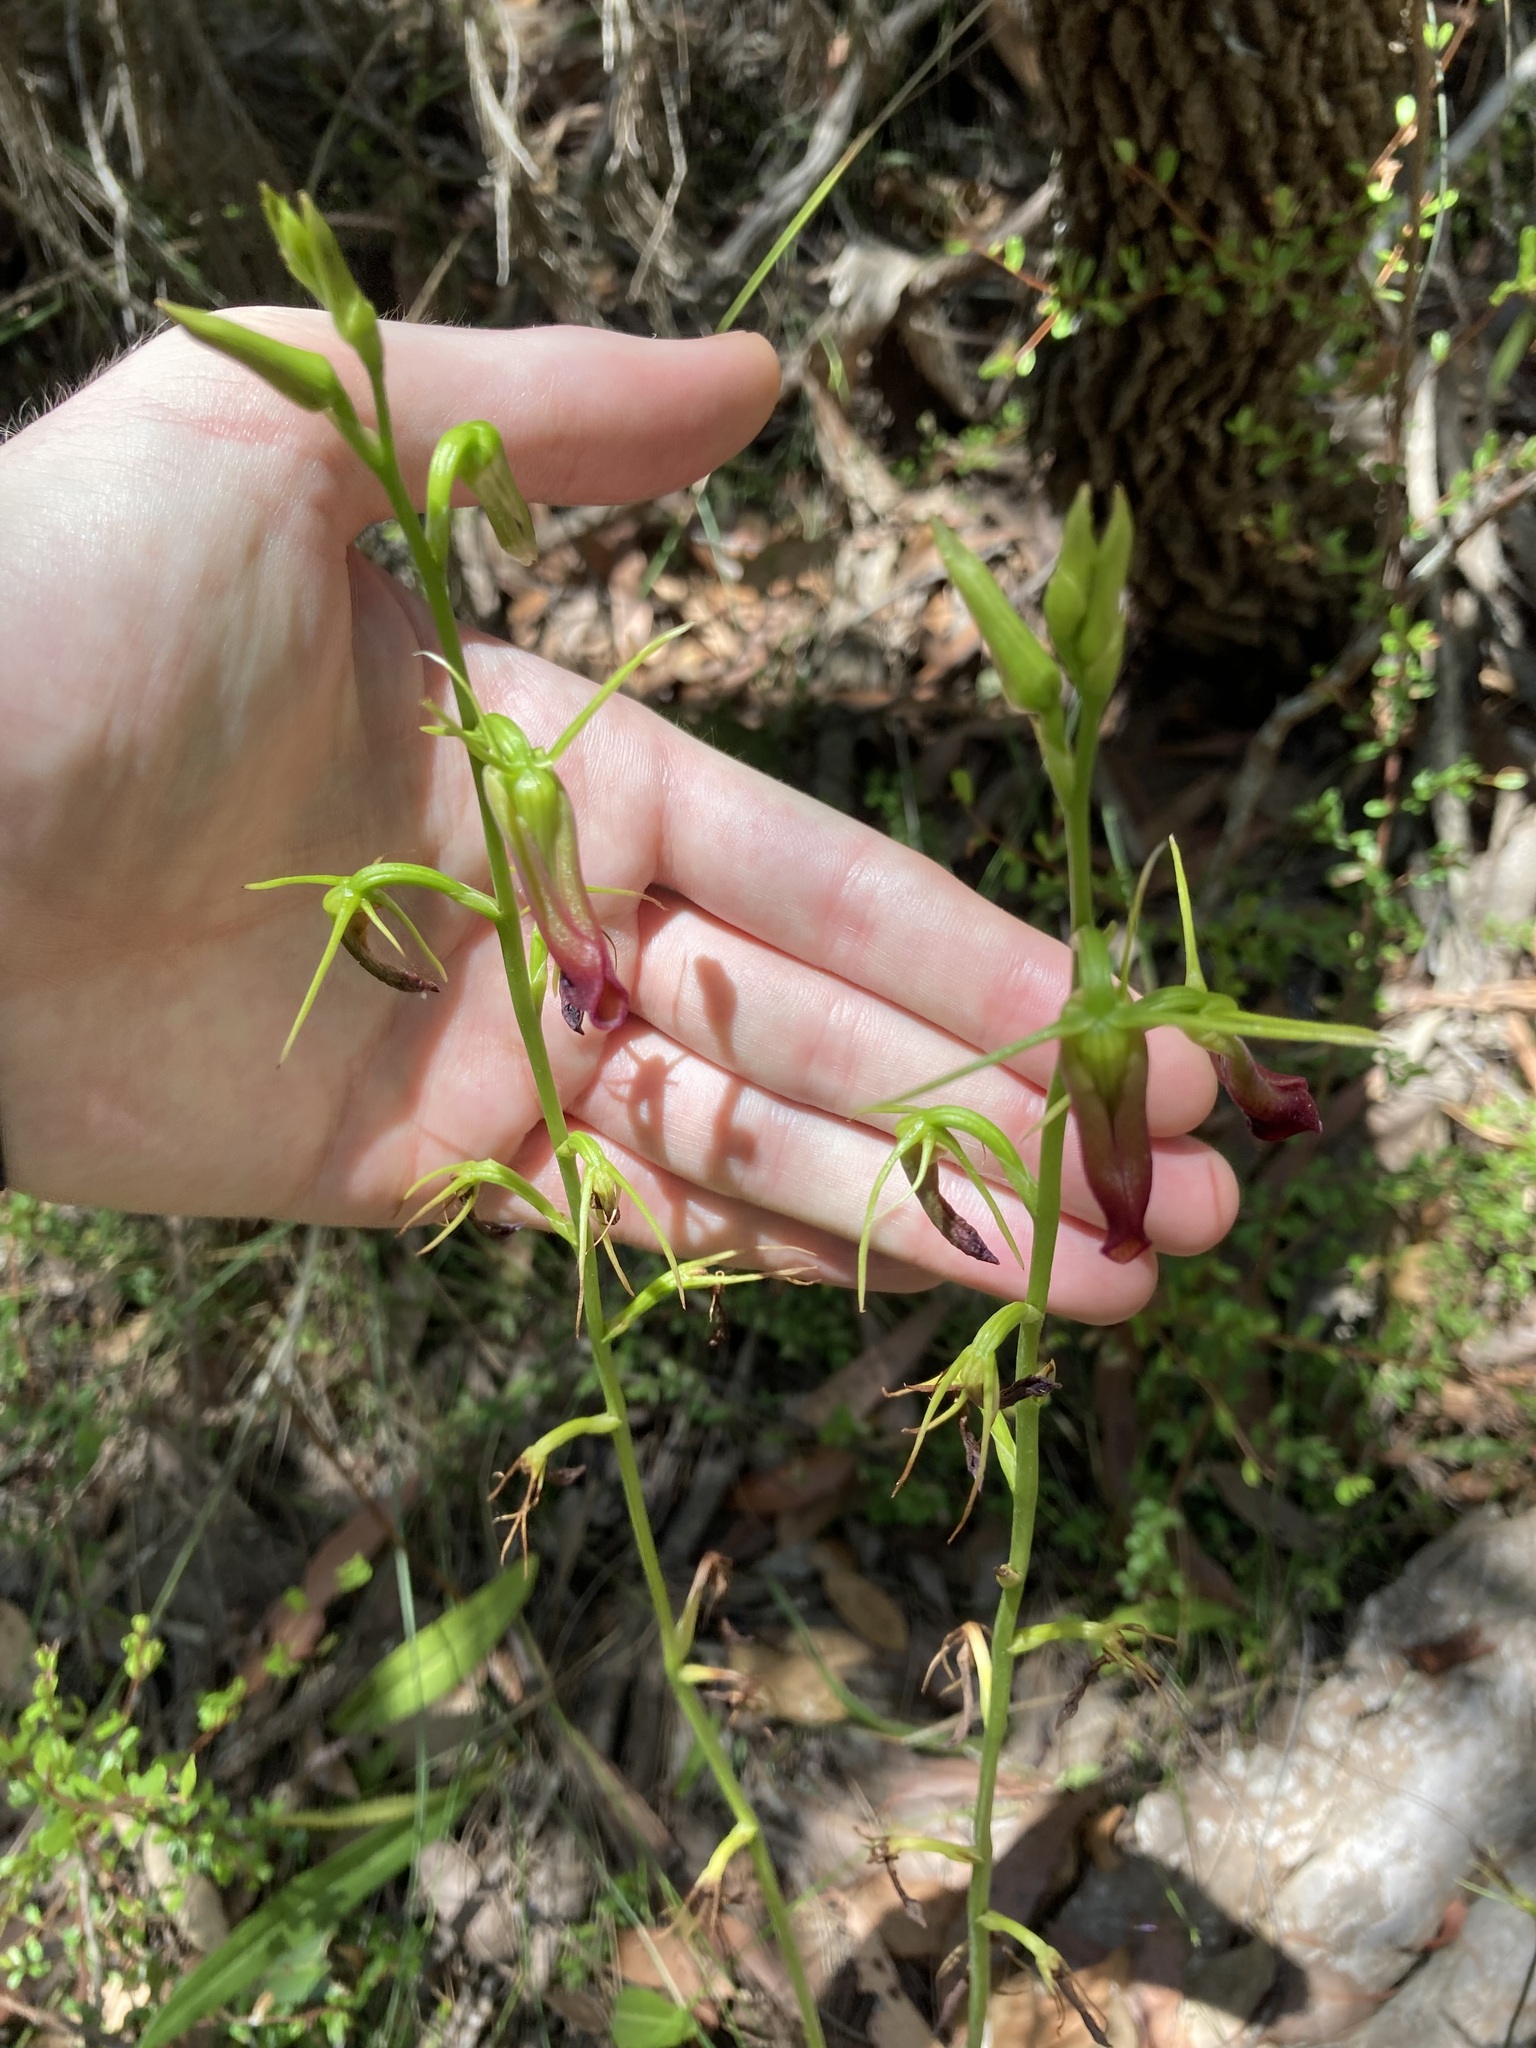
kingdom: Plantae
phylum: Tracheophyta
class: Liliopsida
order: Asparagales
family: Orchidaceae
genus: Cryptostylis
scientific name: Cryptostylis subulata
